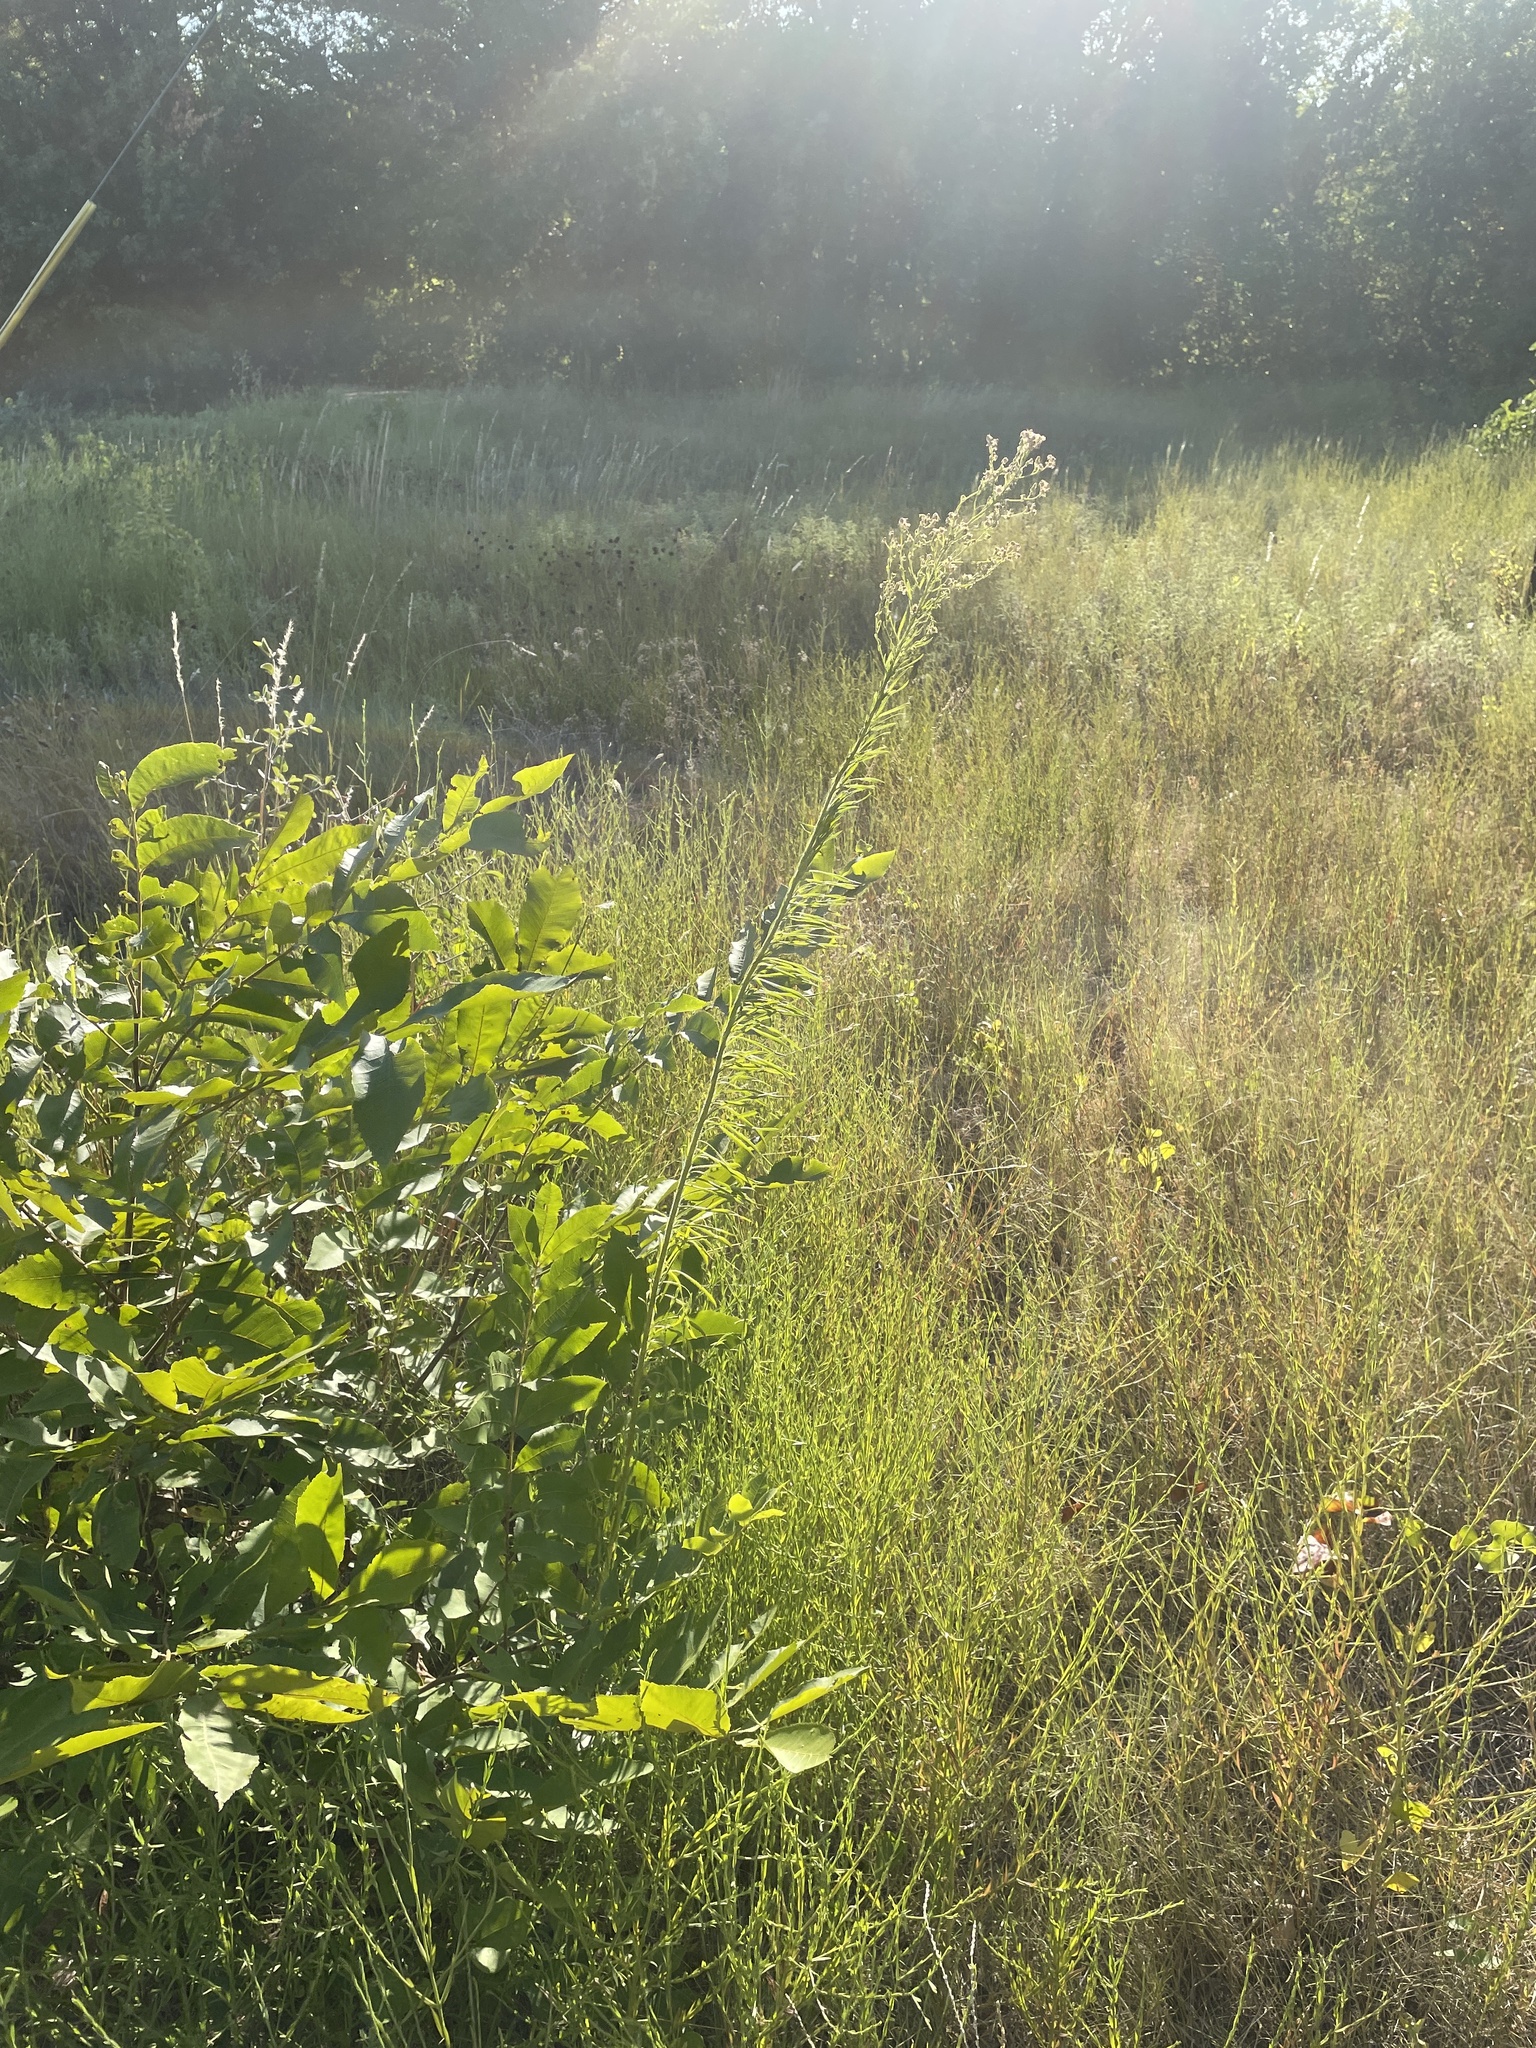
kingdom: Plantae
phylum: Tracheophyta
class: Magnoliopsida
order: Asterales
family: Asteraceae
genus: Erigeron
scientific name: Erigeron canadensis
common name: Canadian fleabane
